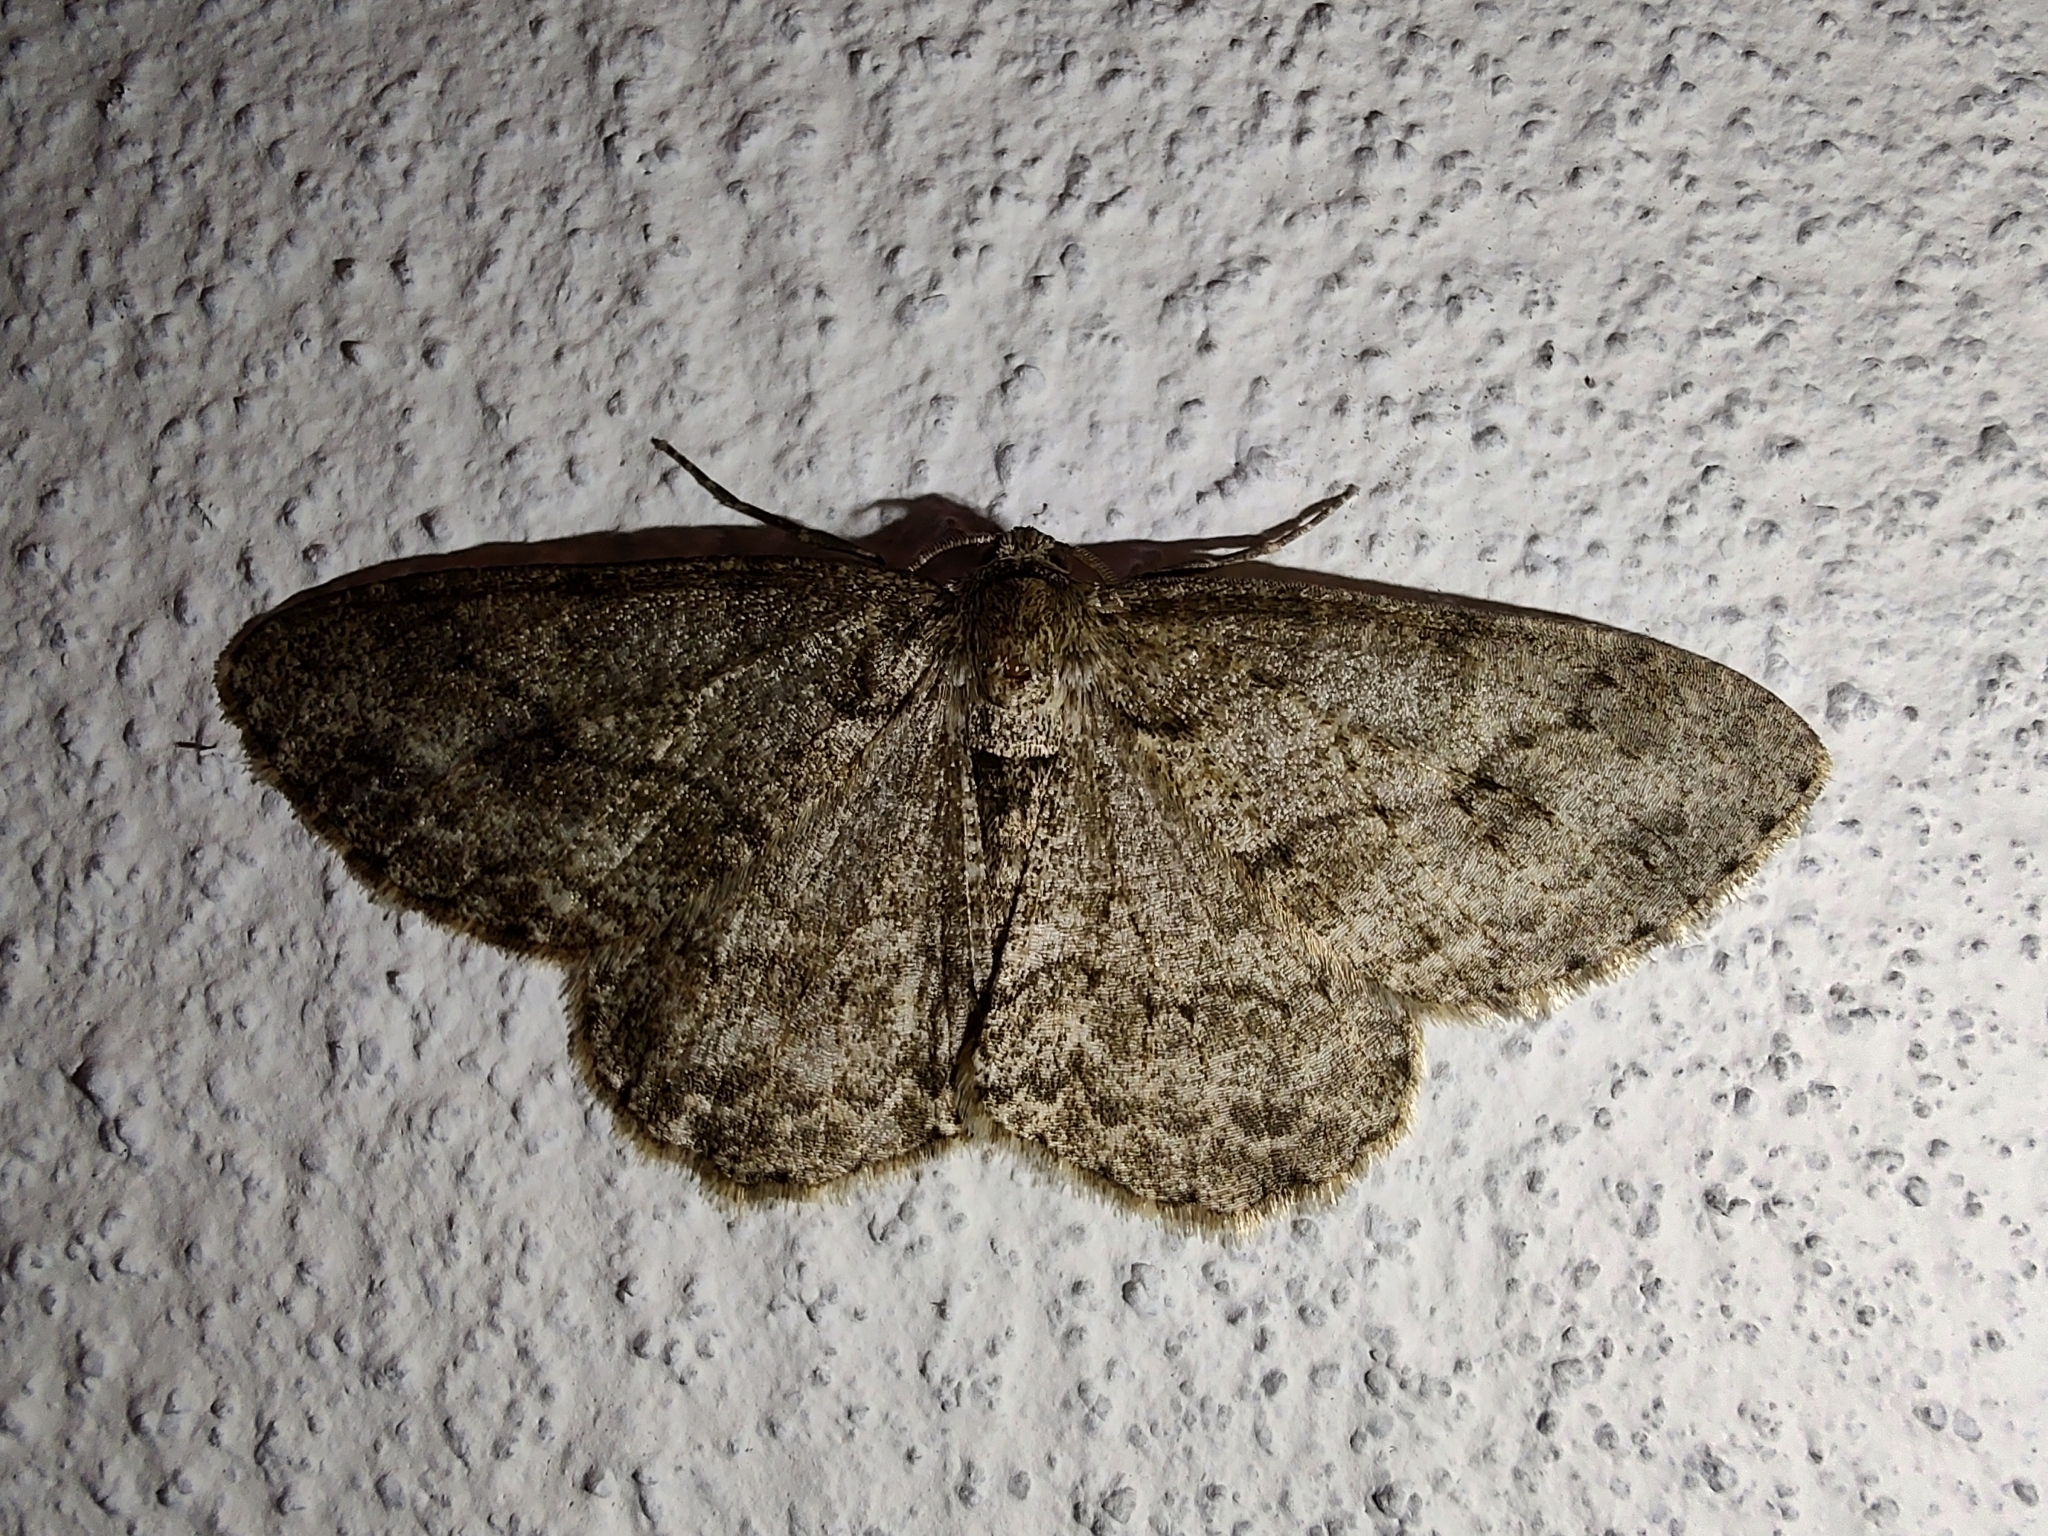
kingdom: Animalia
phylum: Arthropoda
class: Insecta
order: Lepidoptera
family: Geometridae
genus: Ectropis
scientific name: Ectropis crepuscularia
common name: Engrailed
